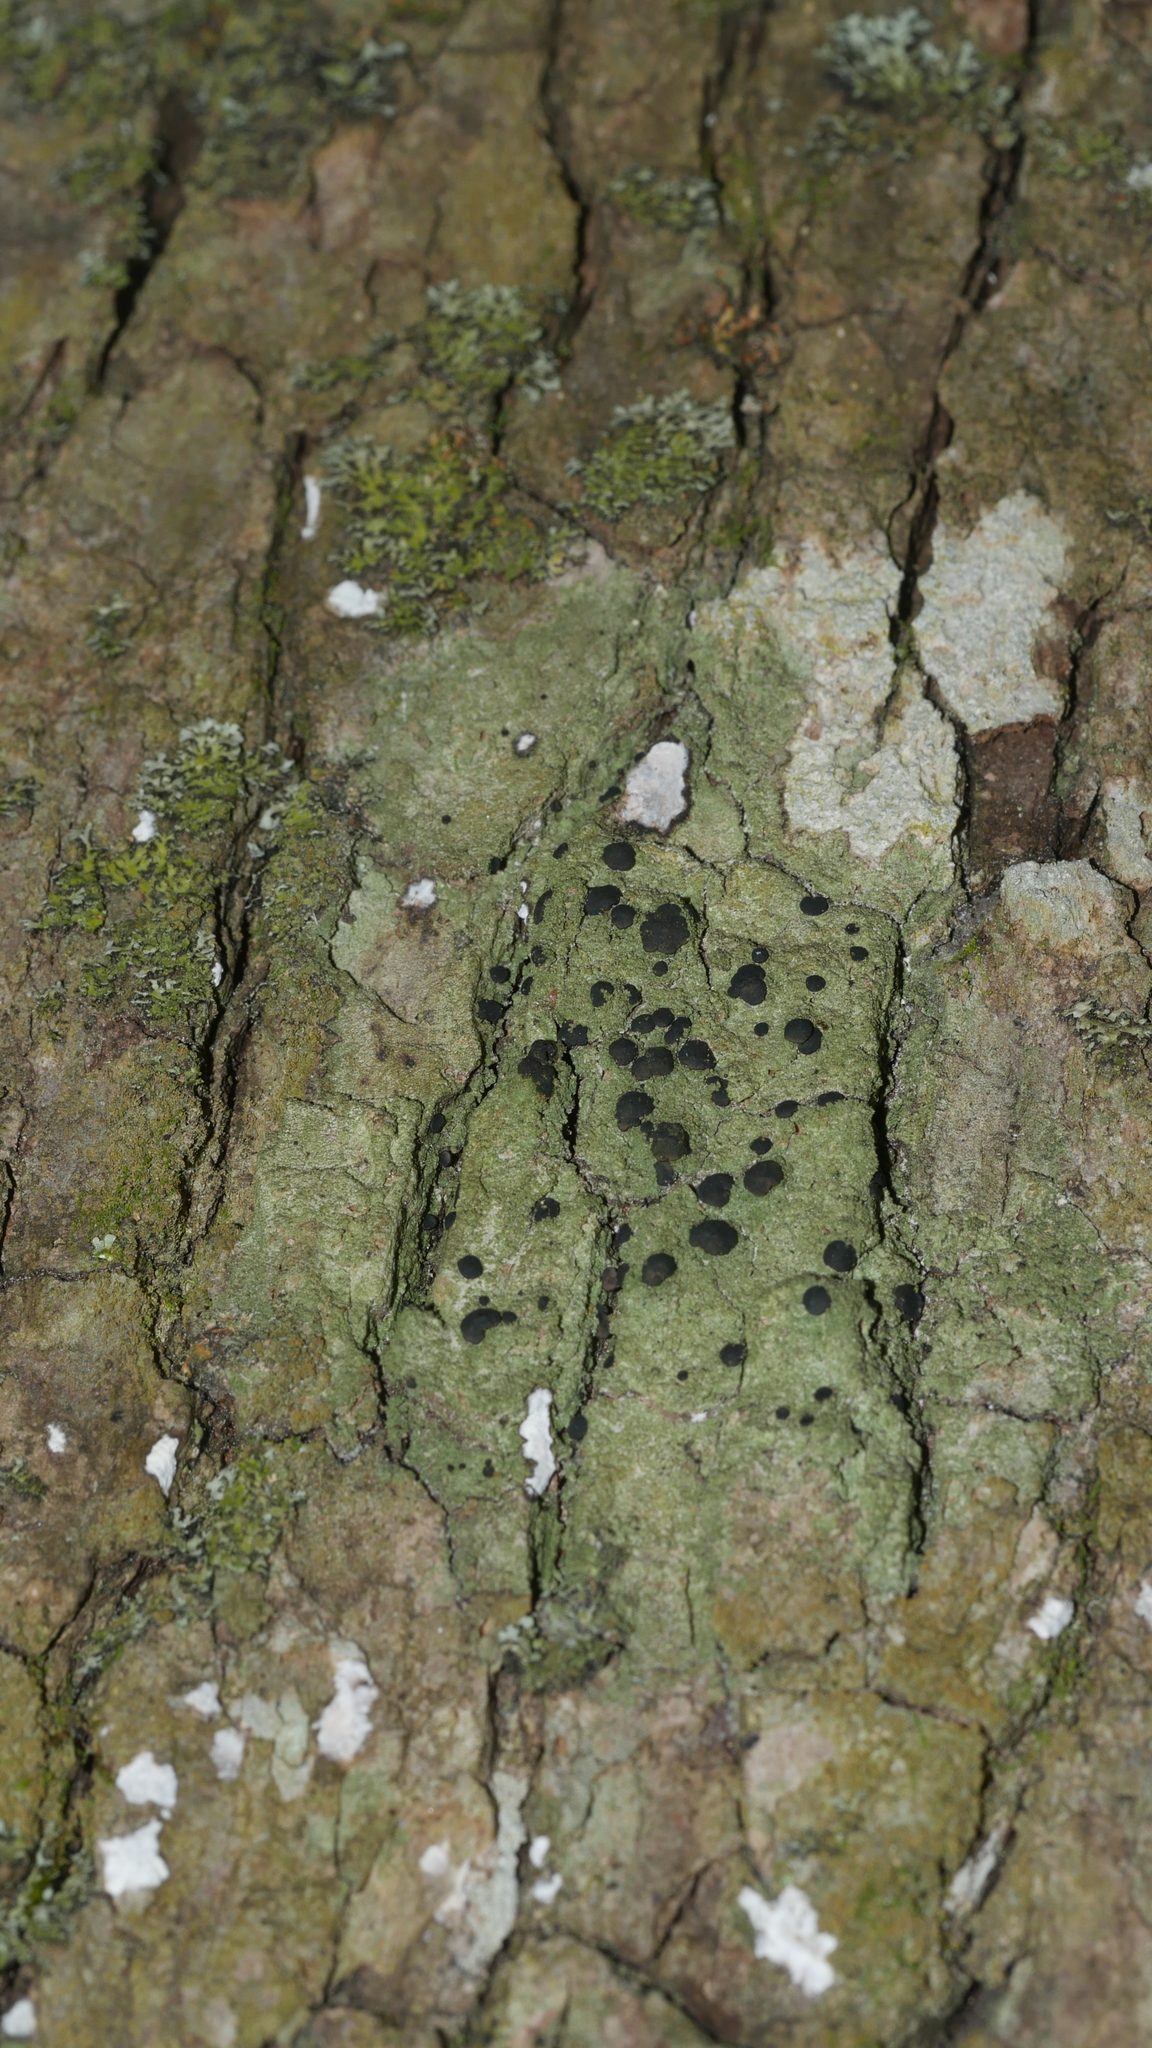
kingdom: Fungi
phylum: Ascomycota
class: Lecanoromycetes
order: Lecanorales
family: Ramalinaceae
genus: Bacidia
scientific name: Bacidia schweinitzii
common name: Surprise lichen
